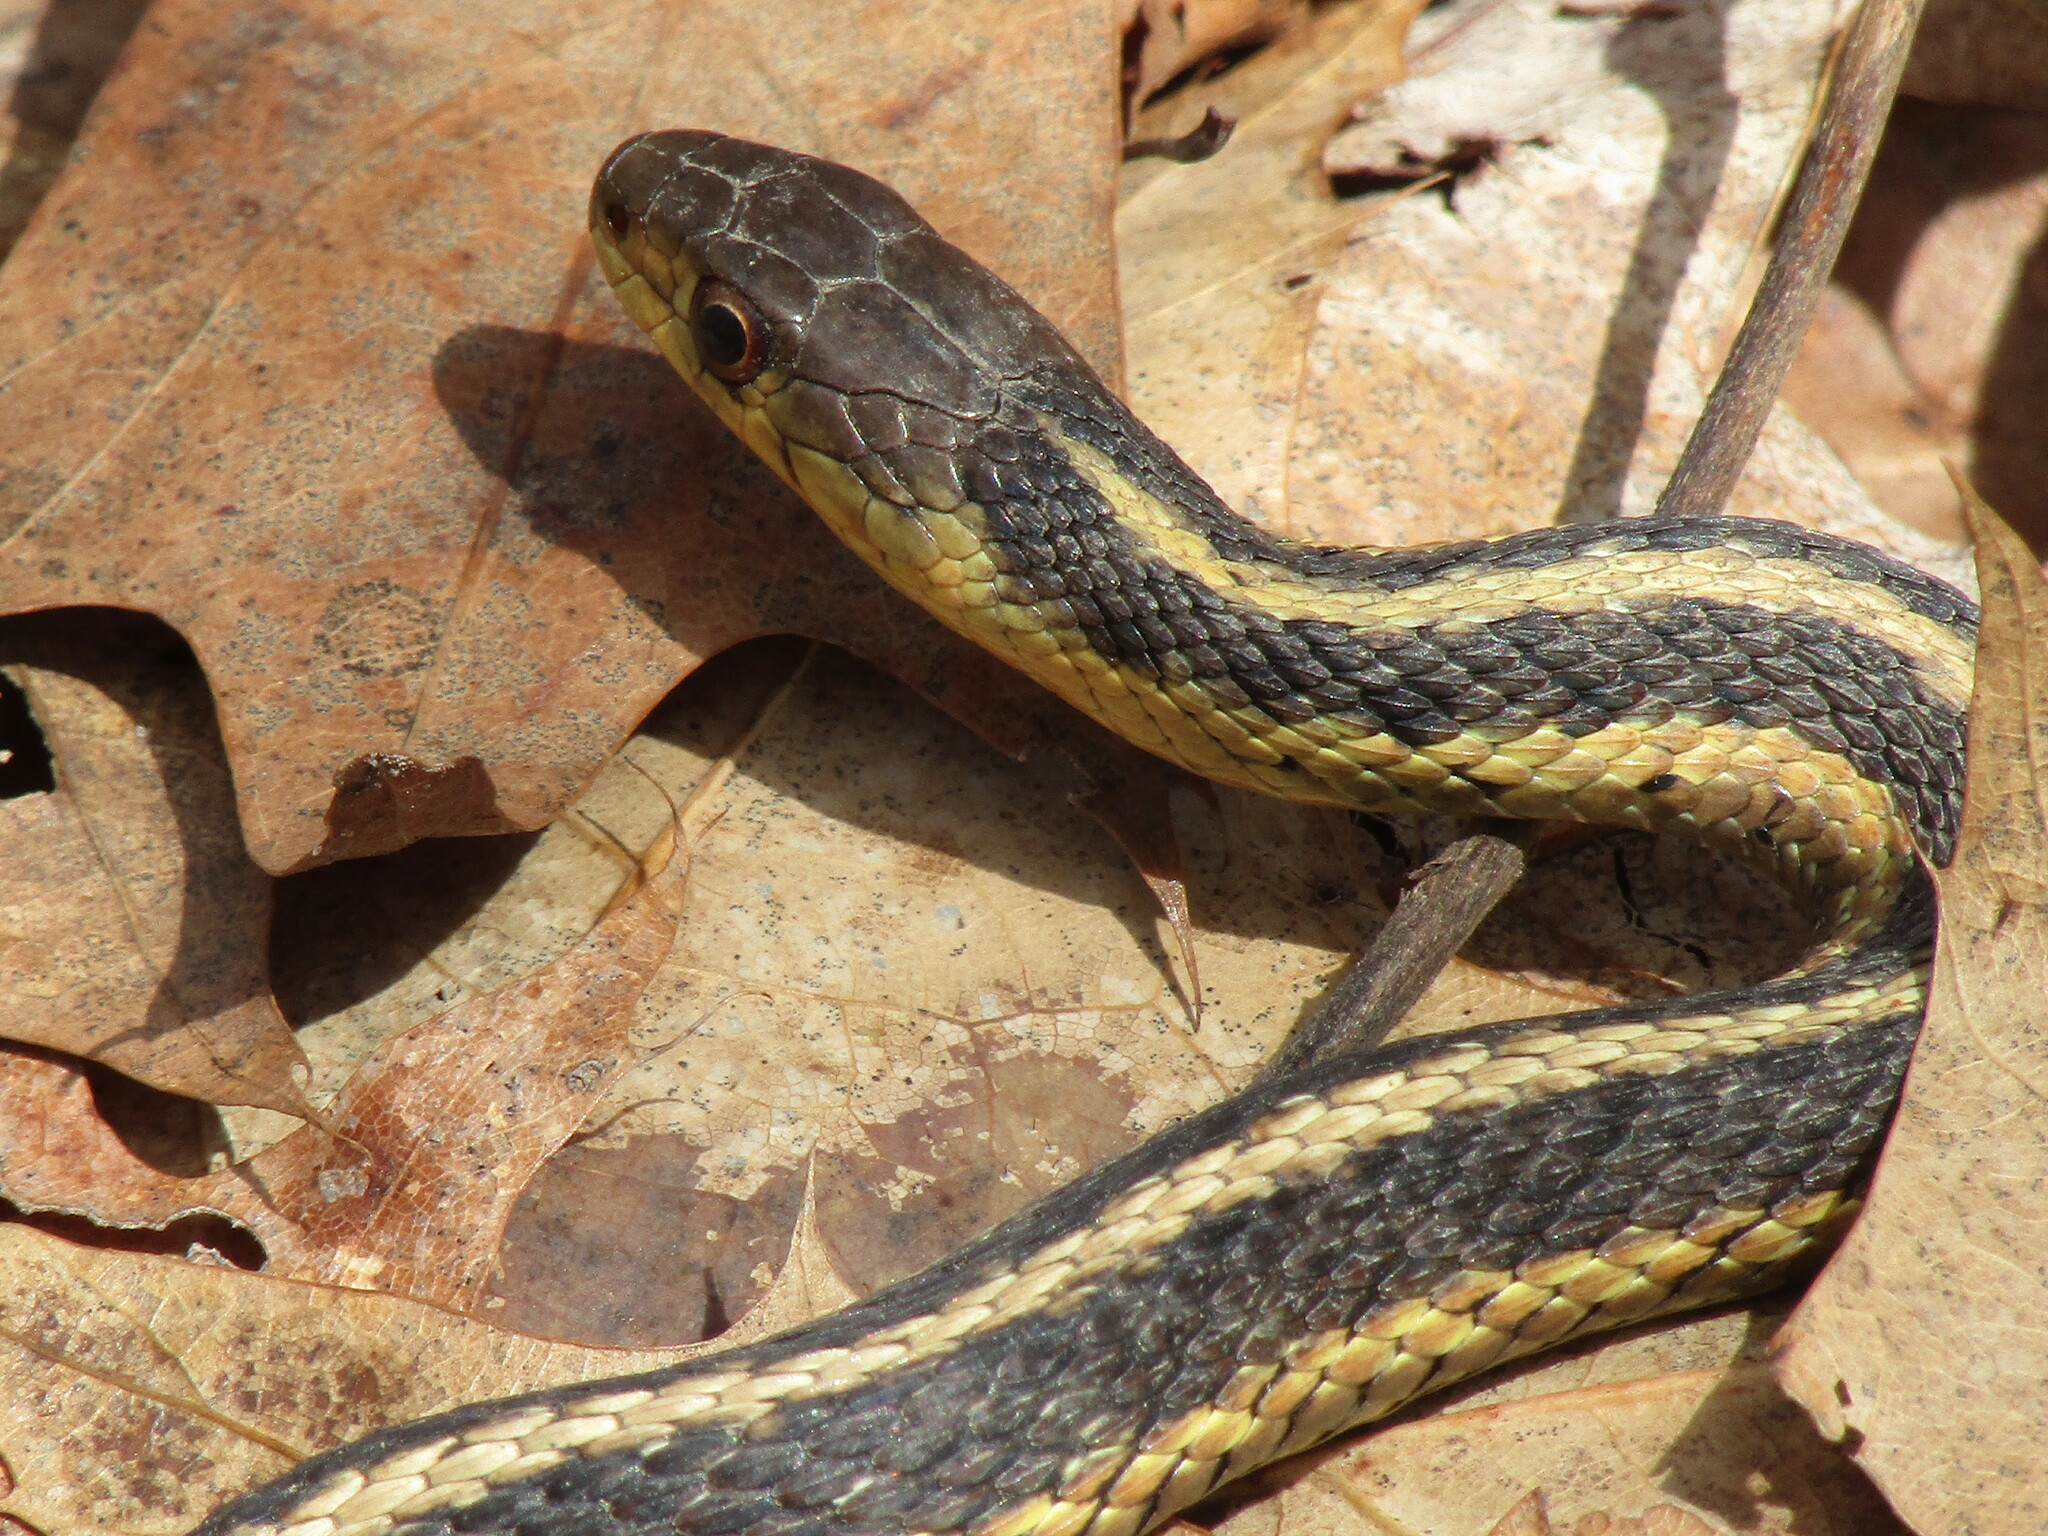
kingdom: Animalia
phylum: Chordata
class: Squamata
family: Colubridae
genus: Thamnophis
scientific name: Thamnophis sirtalis
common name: Common garter snake
